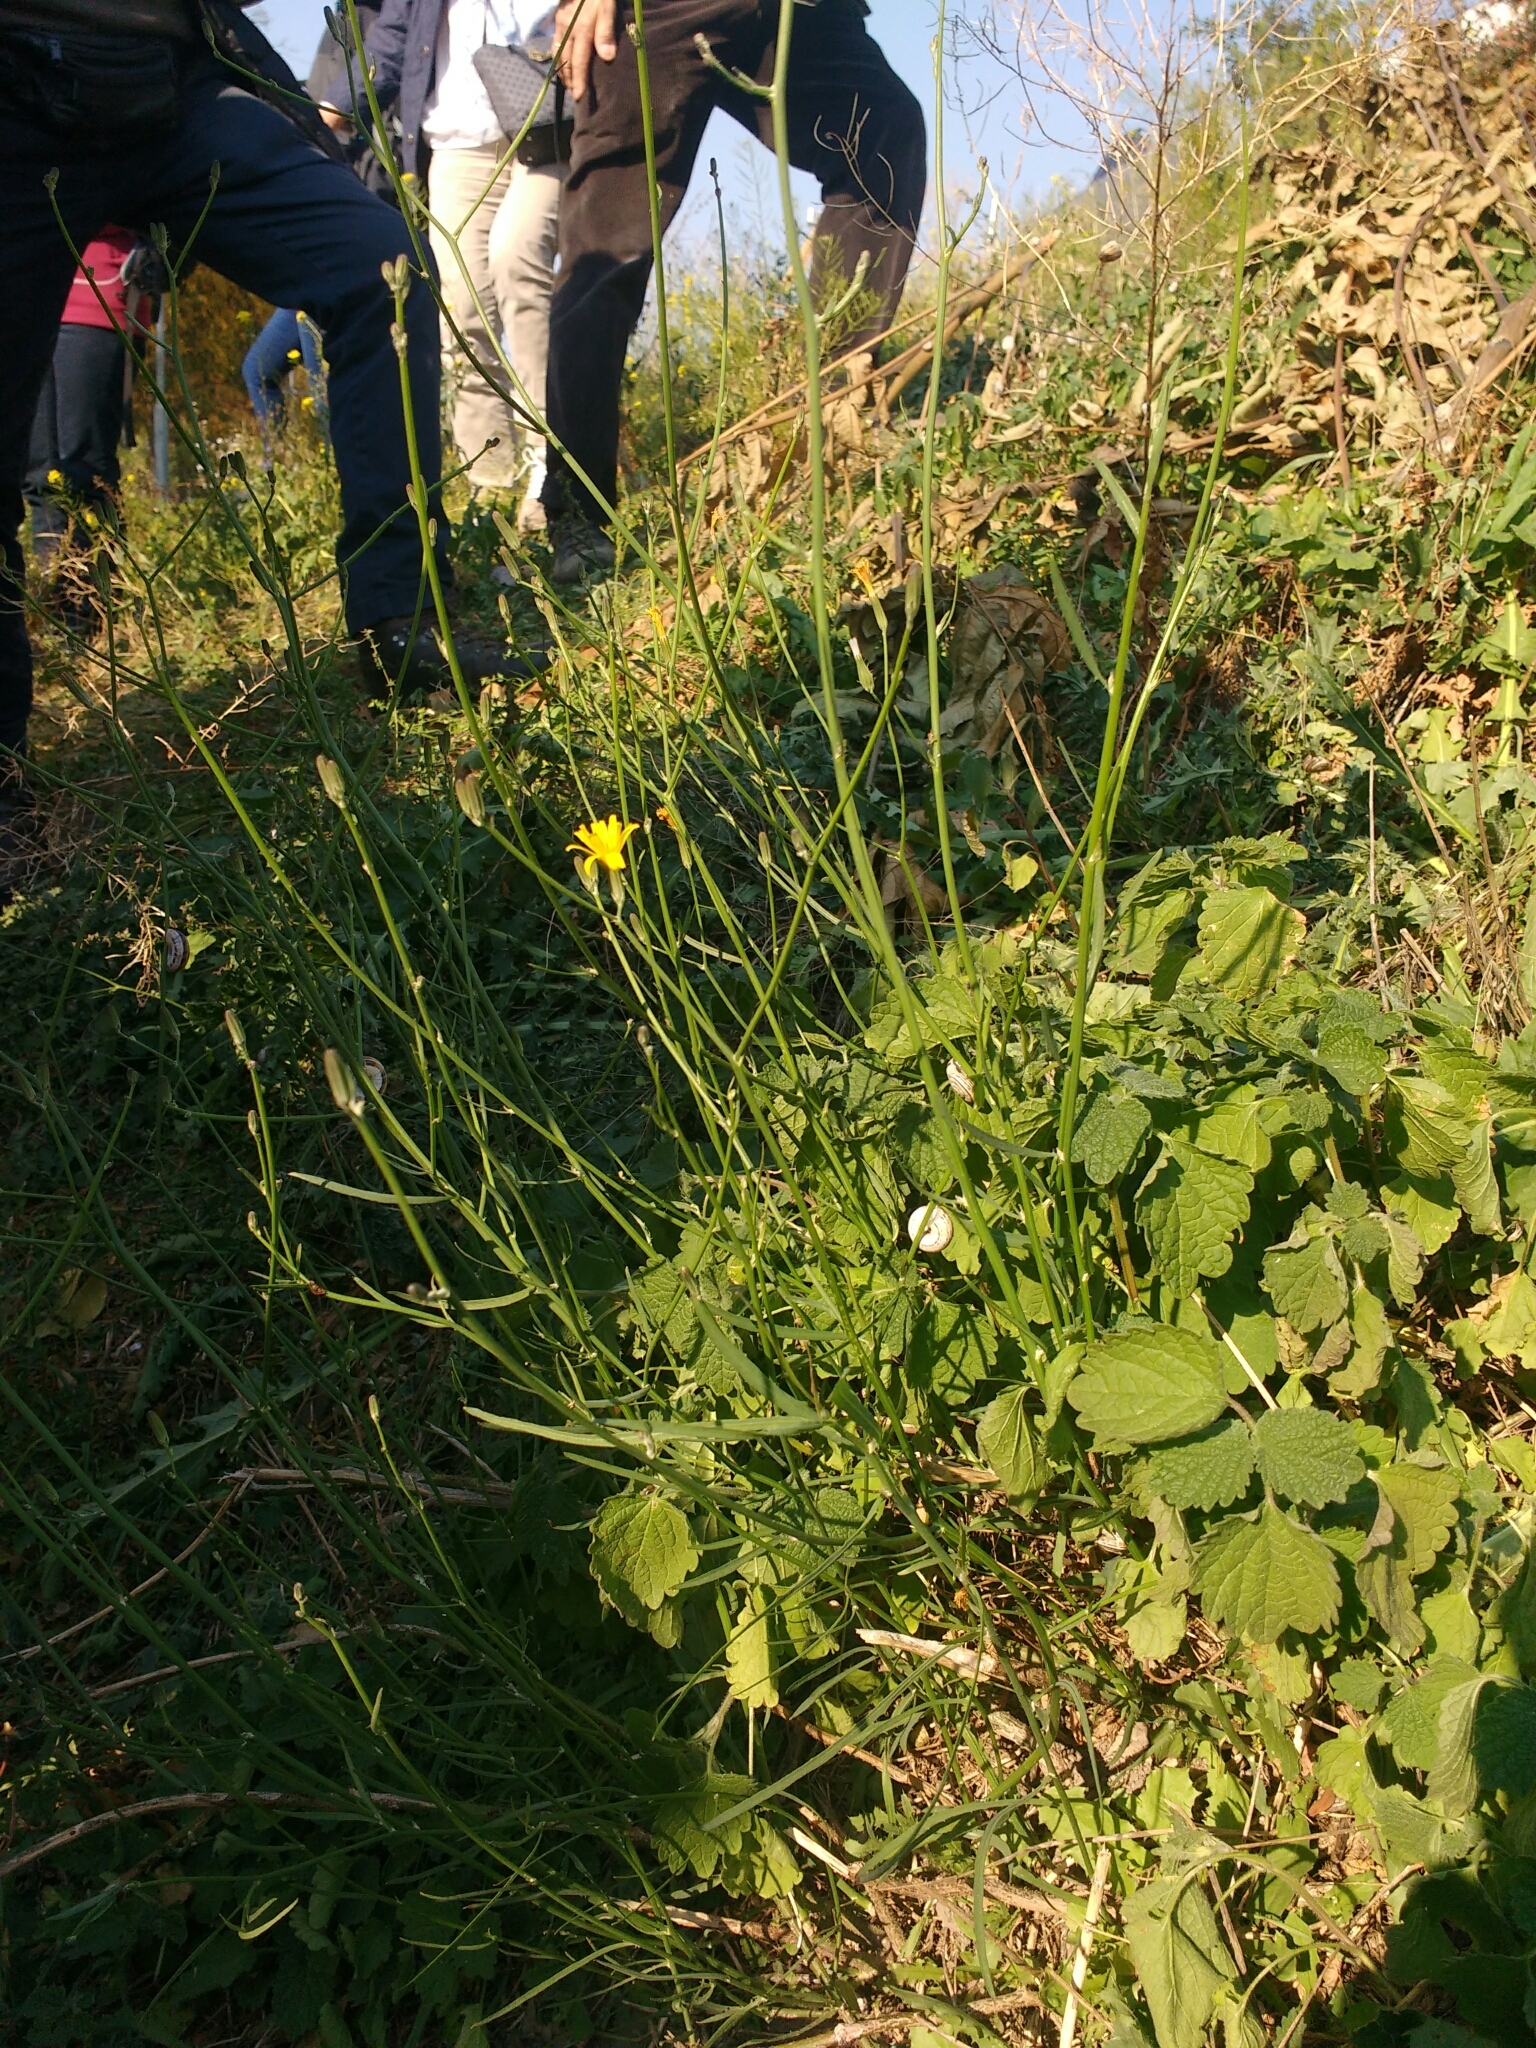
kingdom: Plantae
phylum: Tracheophyta
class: Magnoliopsida
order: Asterales
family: Asteraceae
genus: Chondrilla
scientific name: Chondrilla juncea
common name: Skeleton weed
